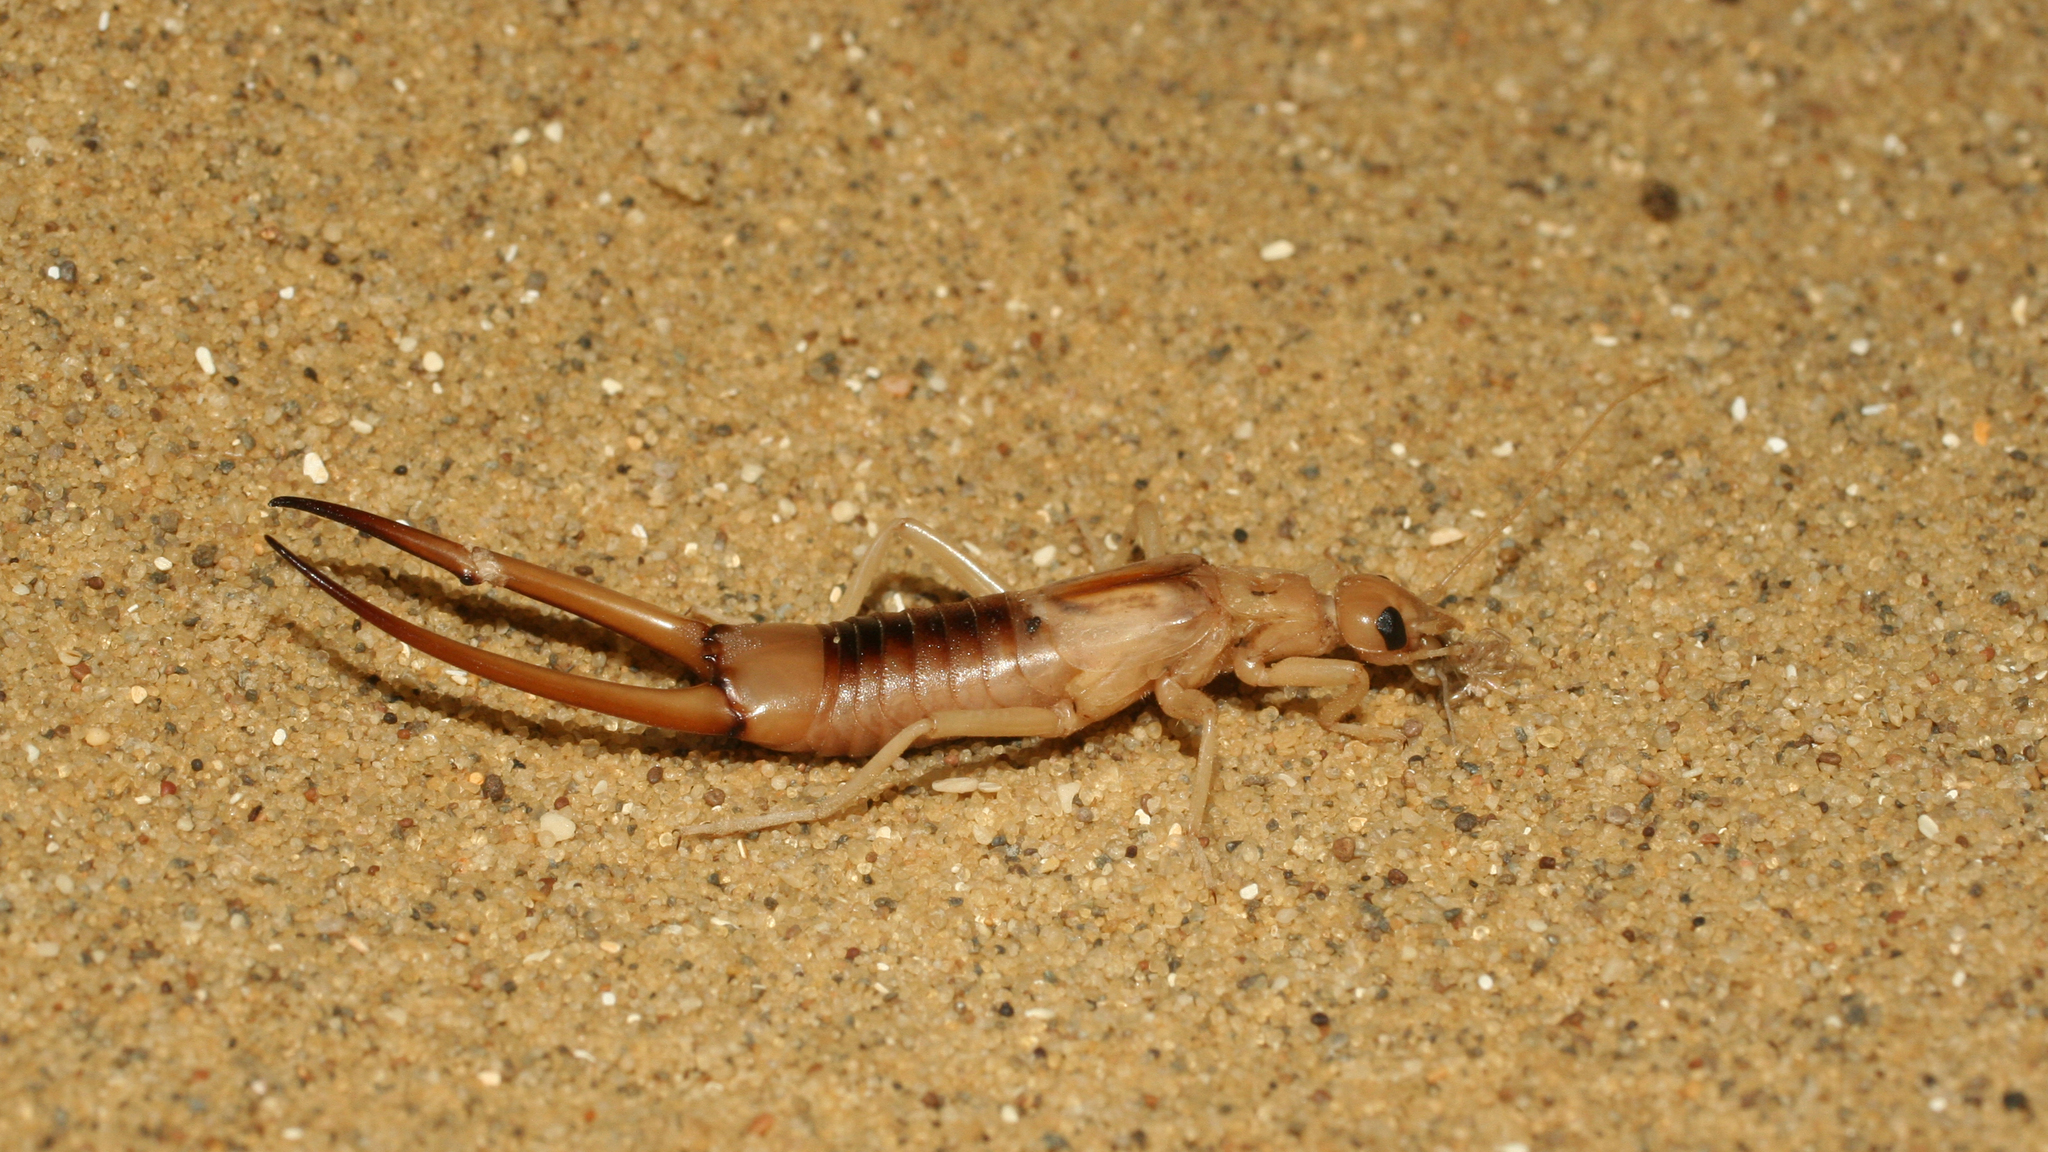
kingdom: Animalia
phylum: Arthropoda
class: Insecta
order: Dermaptera
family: Labiduridae
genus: Labidura
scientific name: Labidura riparia
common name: Striped earwig
